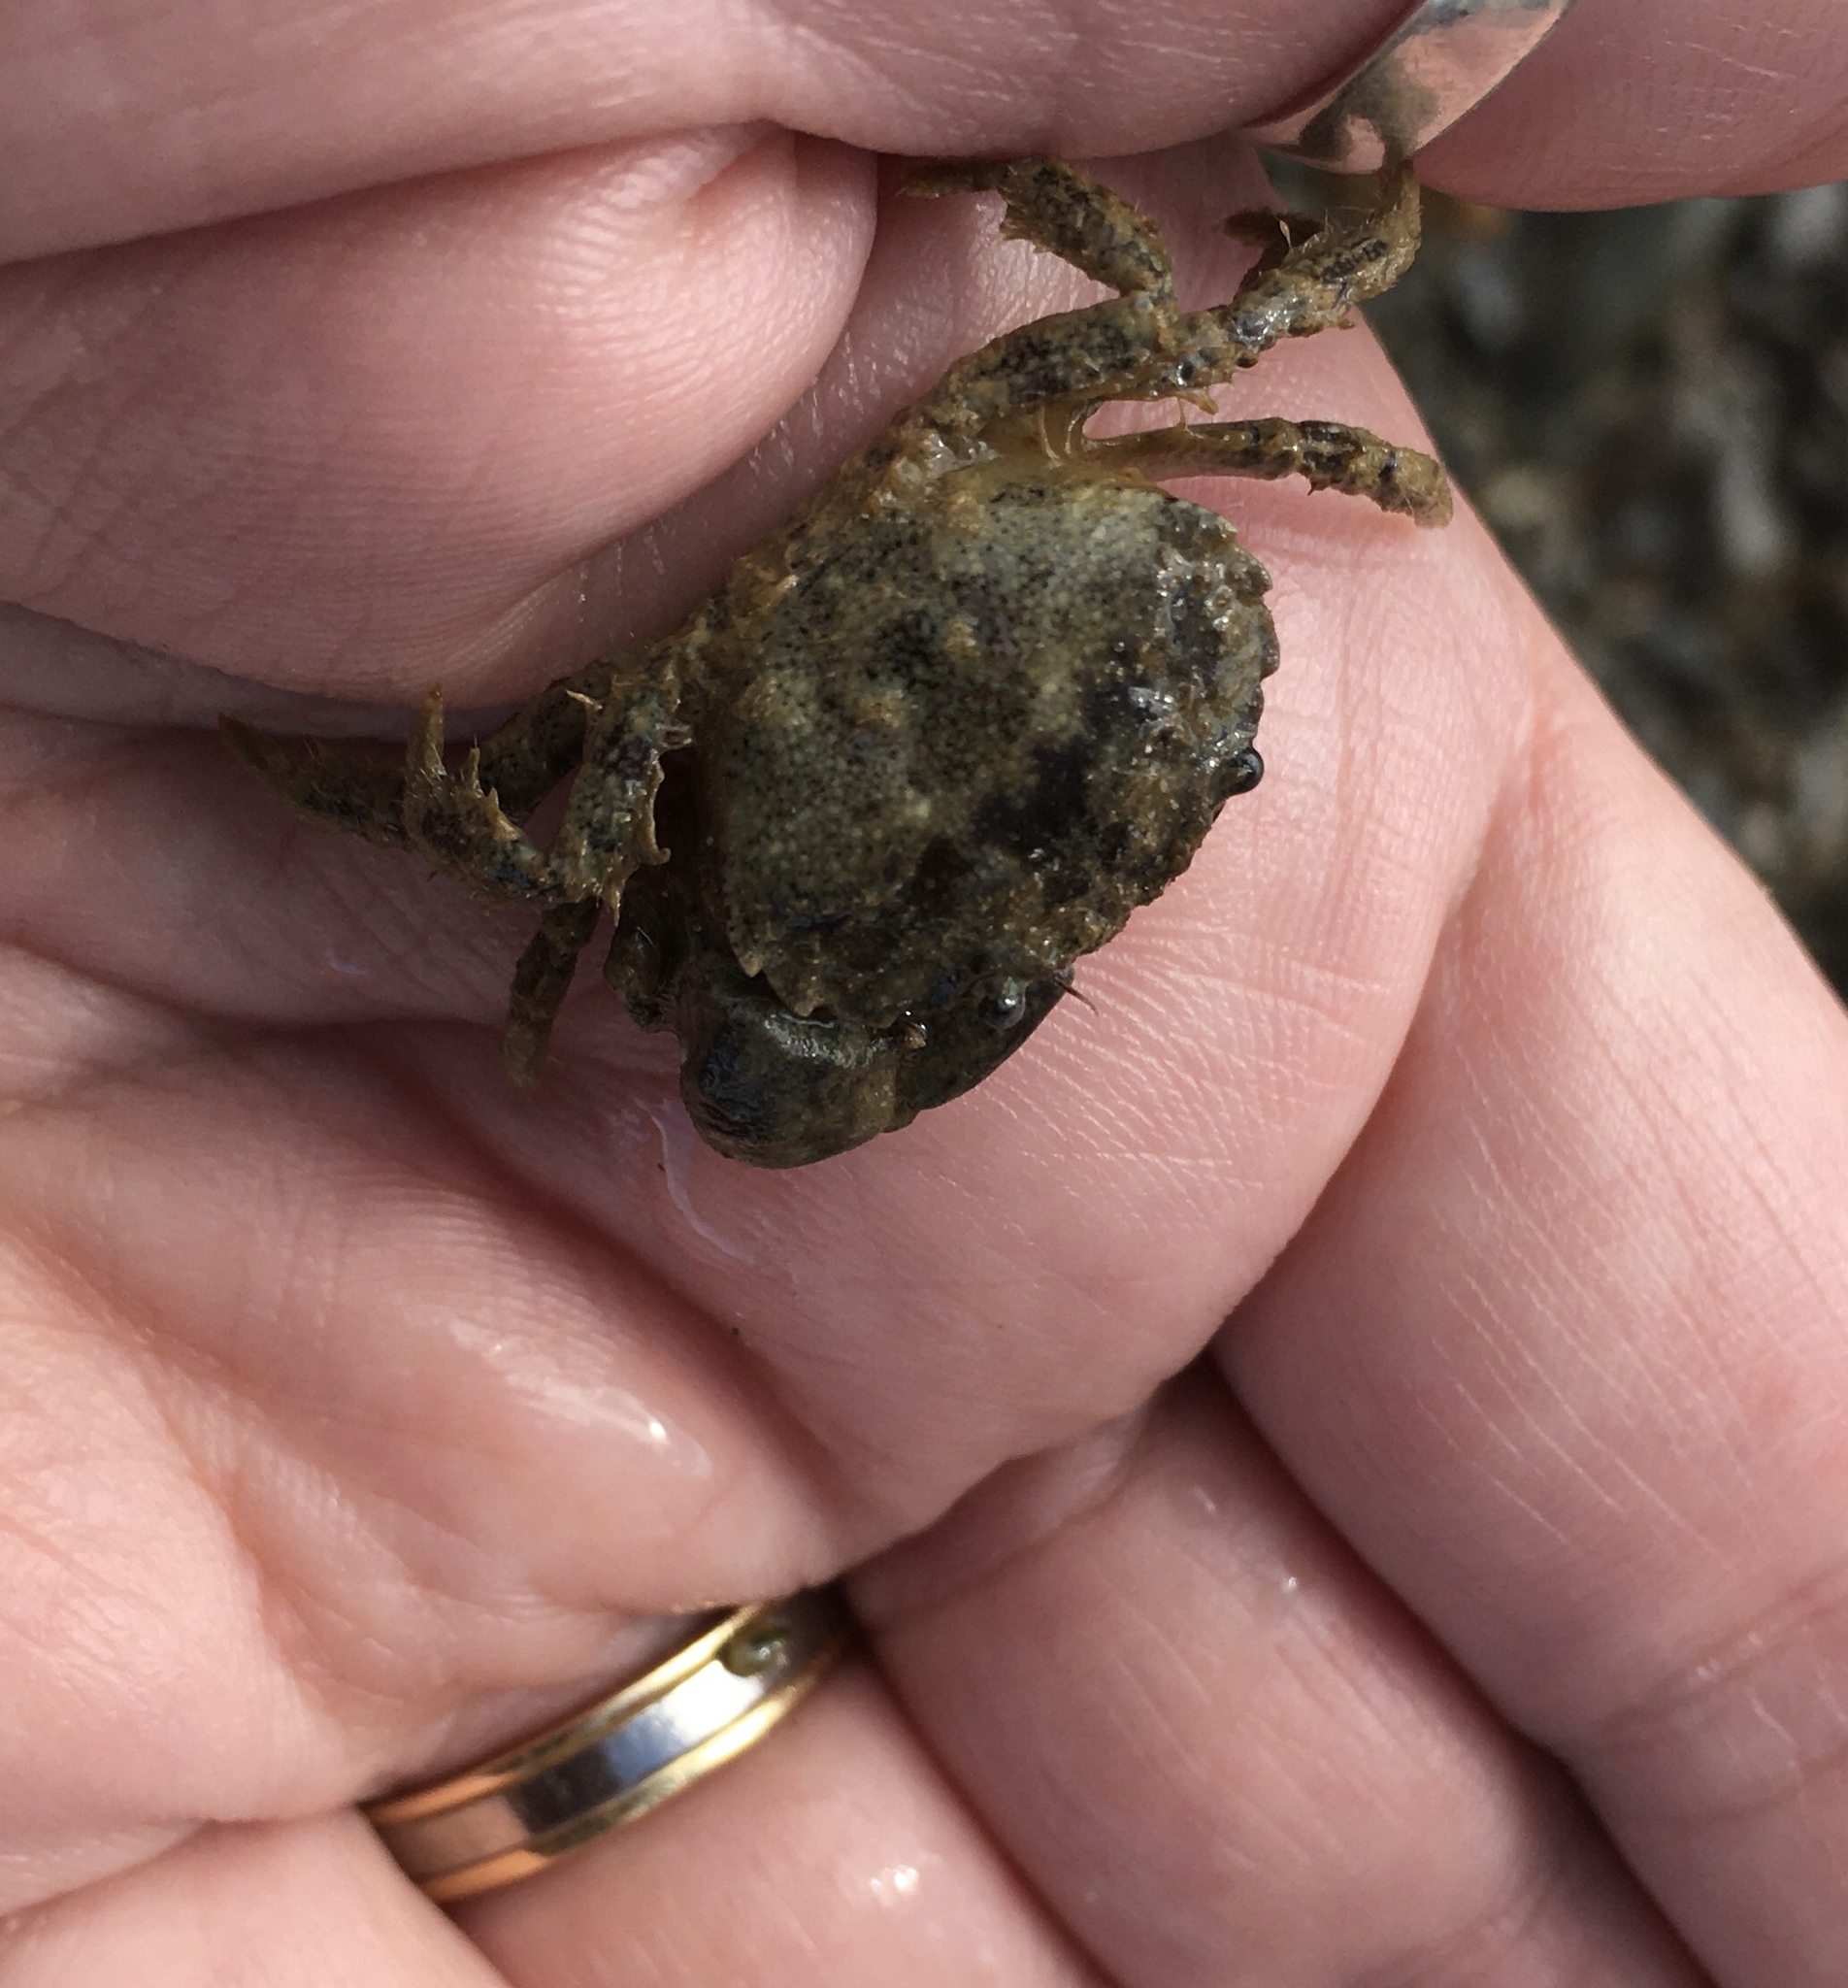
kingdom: Animalia
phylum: Arthropoda
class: Malacostraca
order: Decapoda
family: Pilumnidae
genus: Pilumnopeus
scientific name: Pilumnopeus serratifrons
